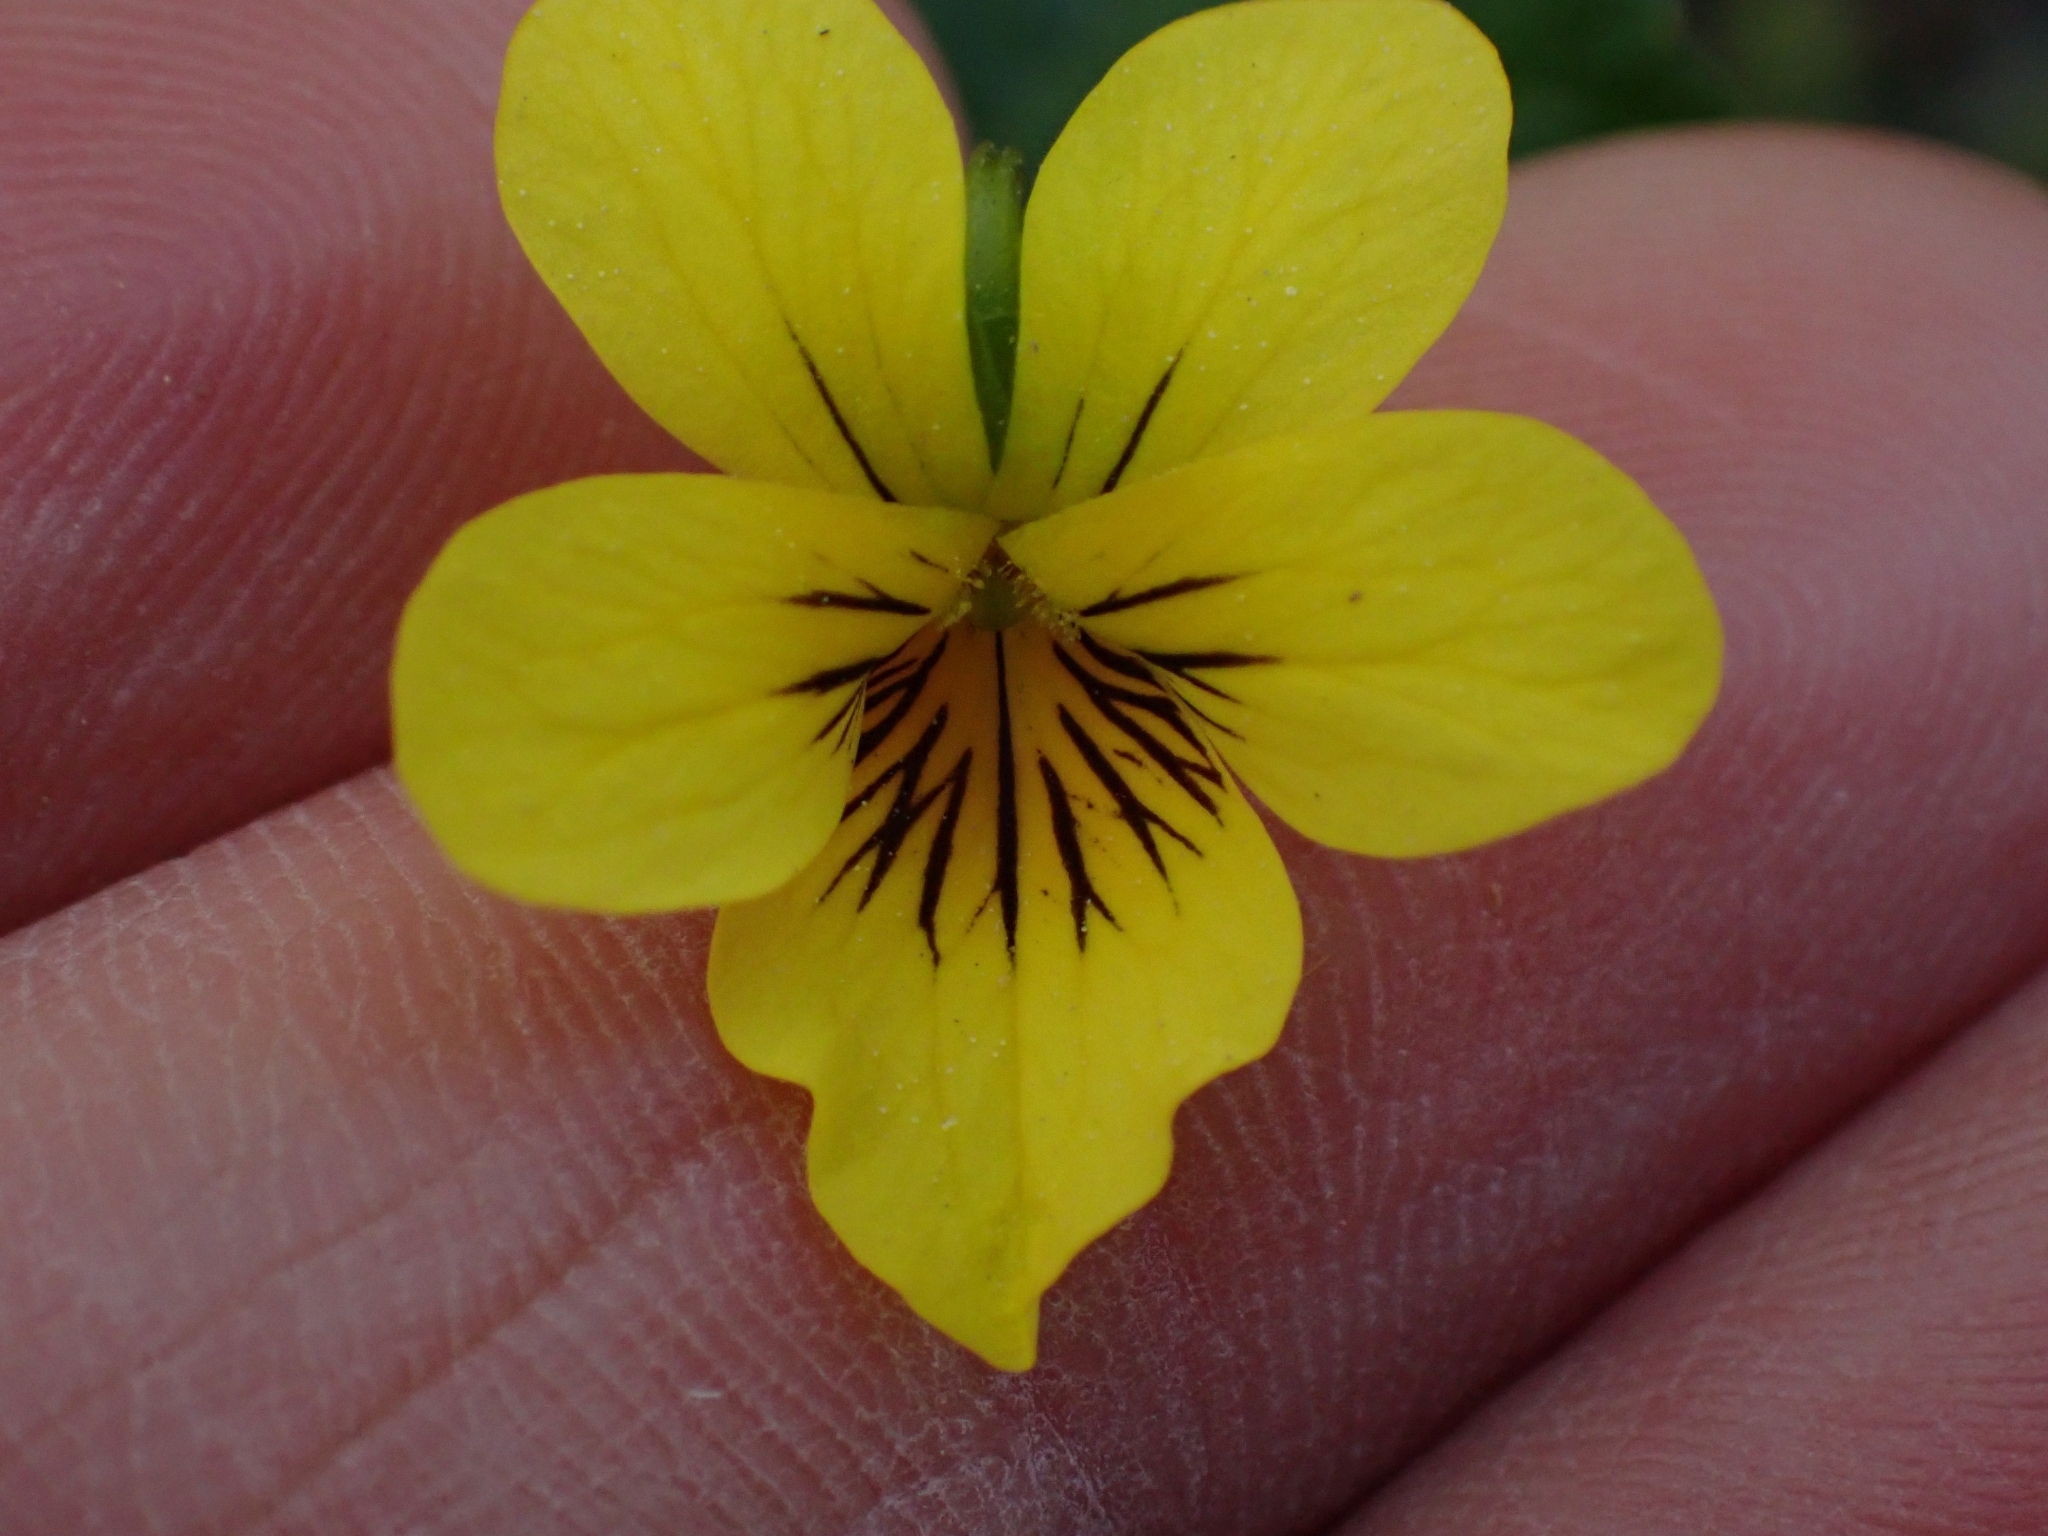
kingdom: Plantae
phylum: Tracheophyta
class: Magnoliopsida
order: Malpighiales
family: Violaceae
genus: Viola
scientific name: Viola glabella
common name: Stream violet
